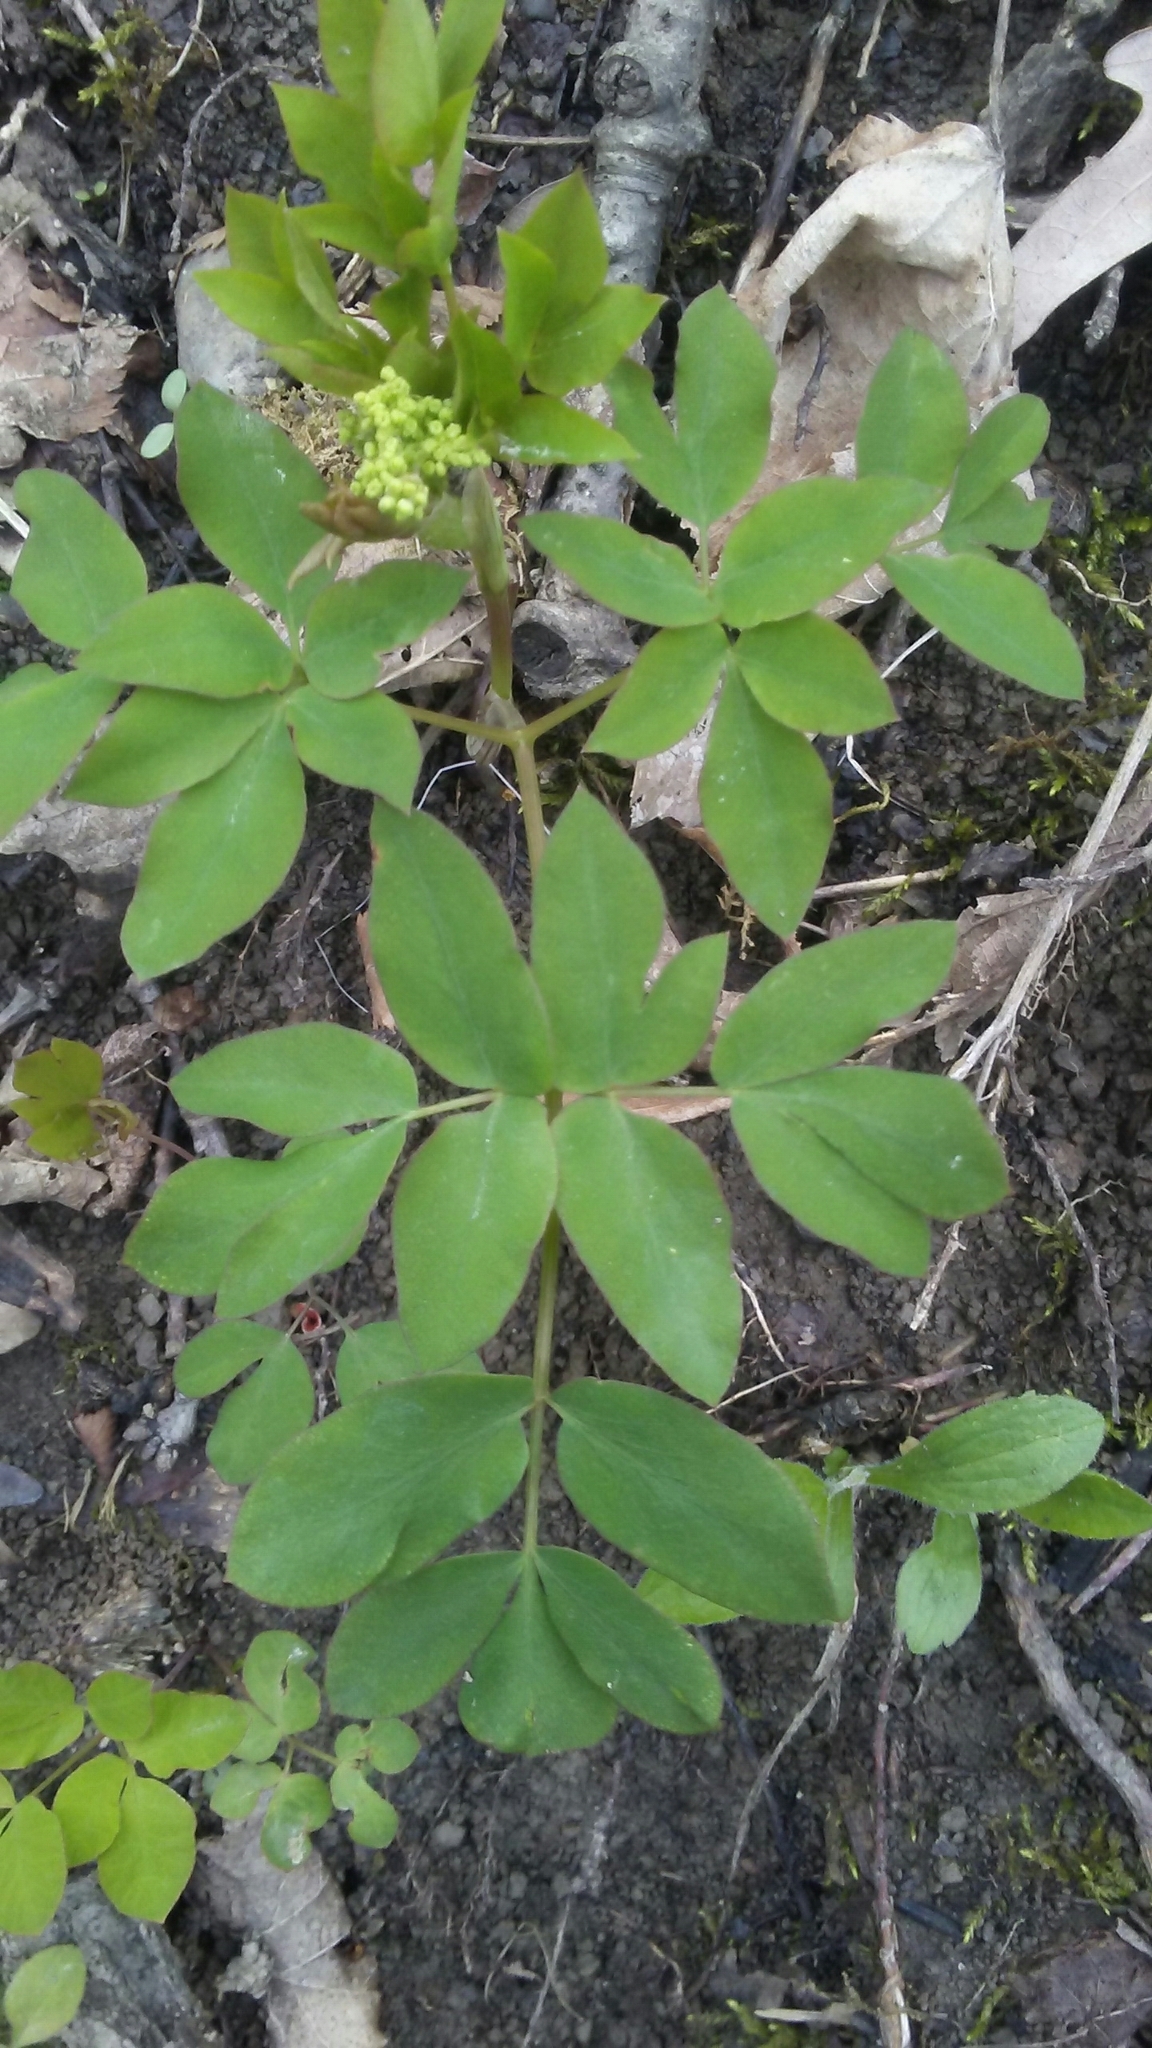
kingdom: Plantae
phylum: Tracheophyta
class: Magnoliopsida
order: Apiales
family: Apiaceae
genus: Taenidia
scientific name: Taenidia integerrima
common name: Golden alexander
